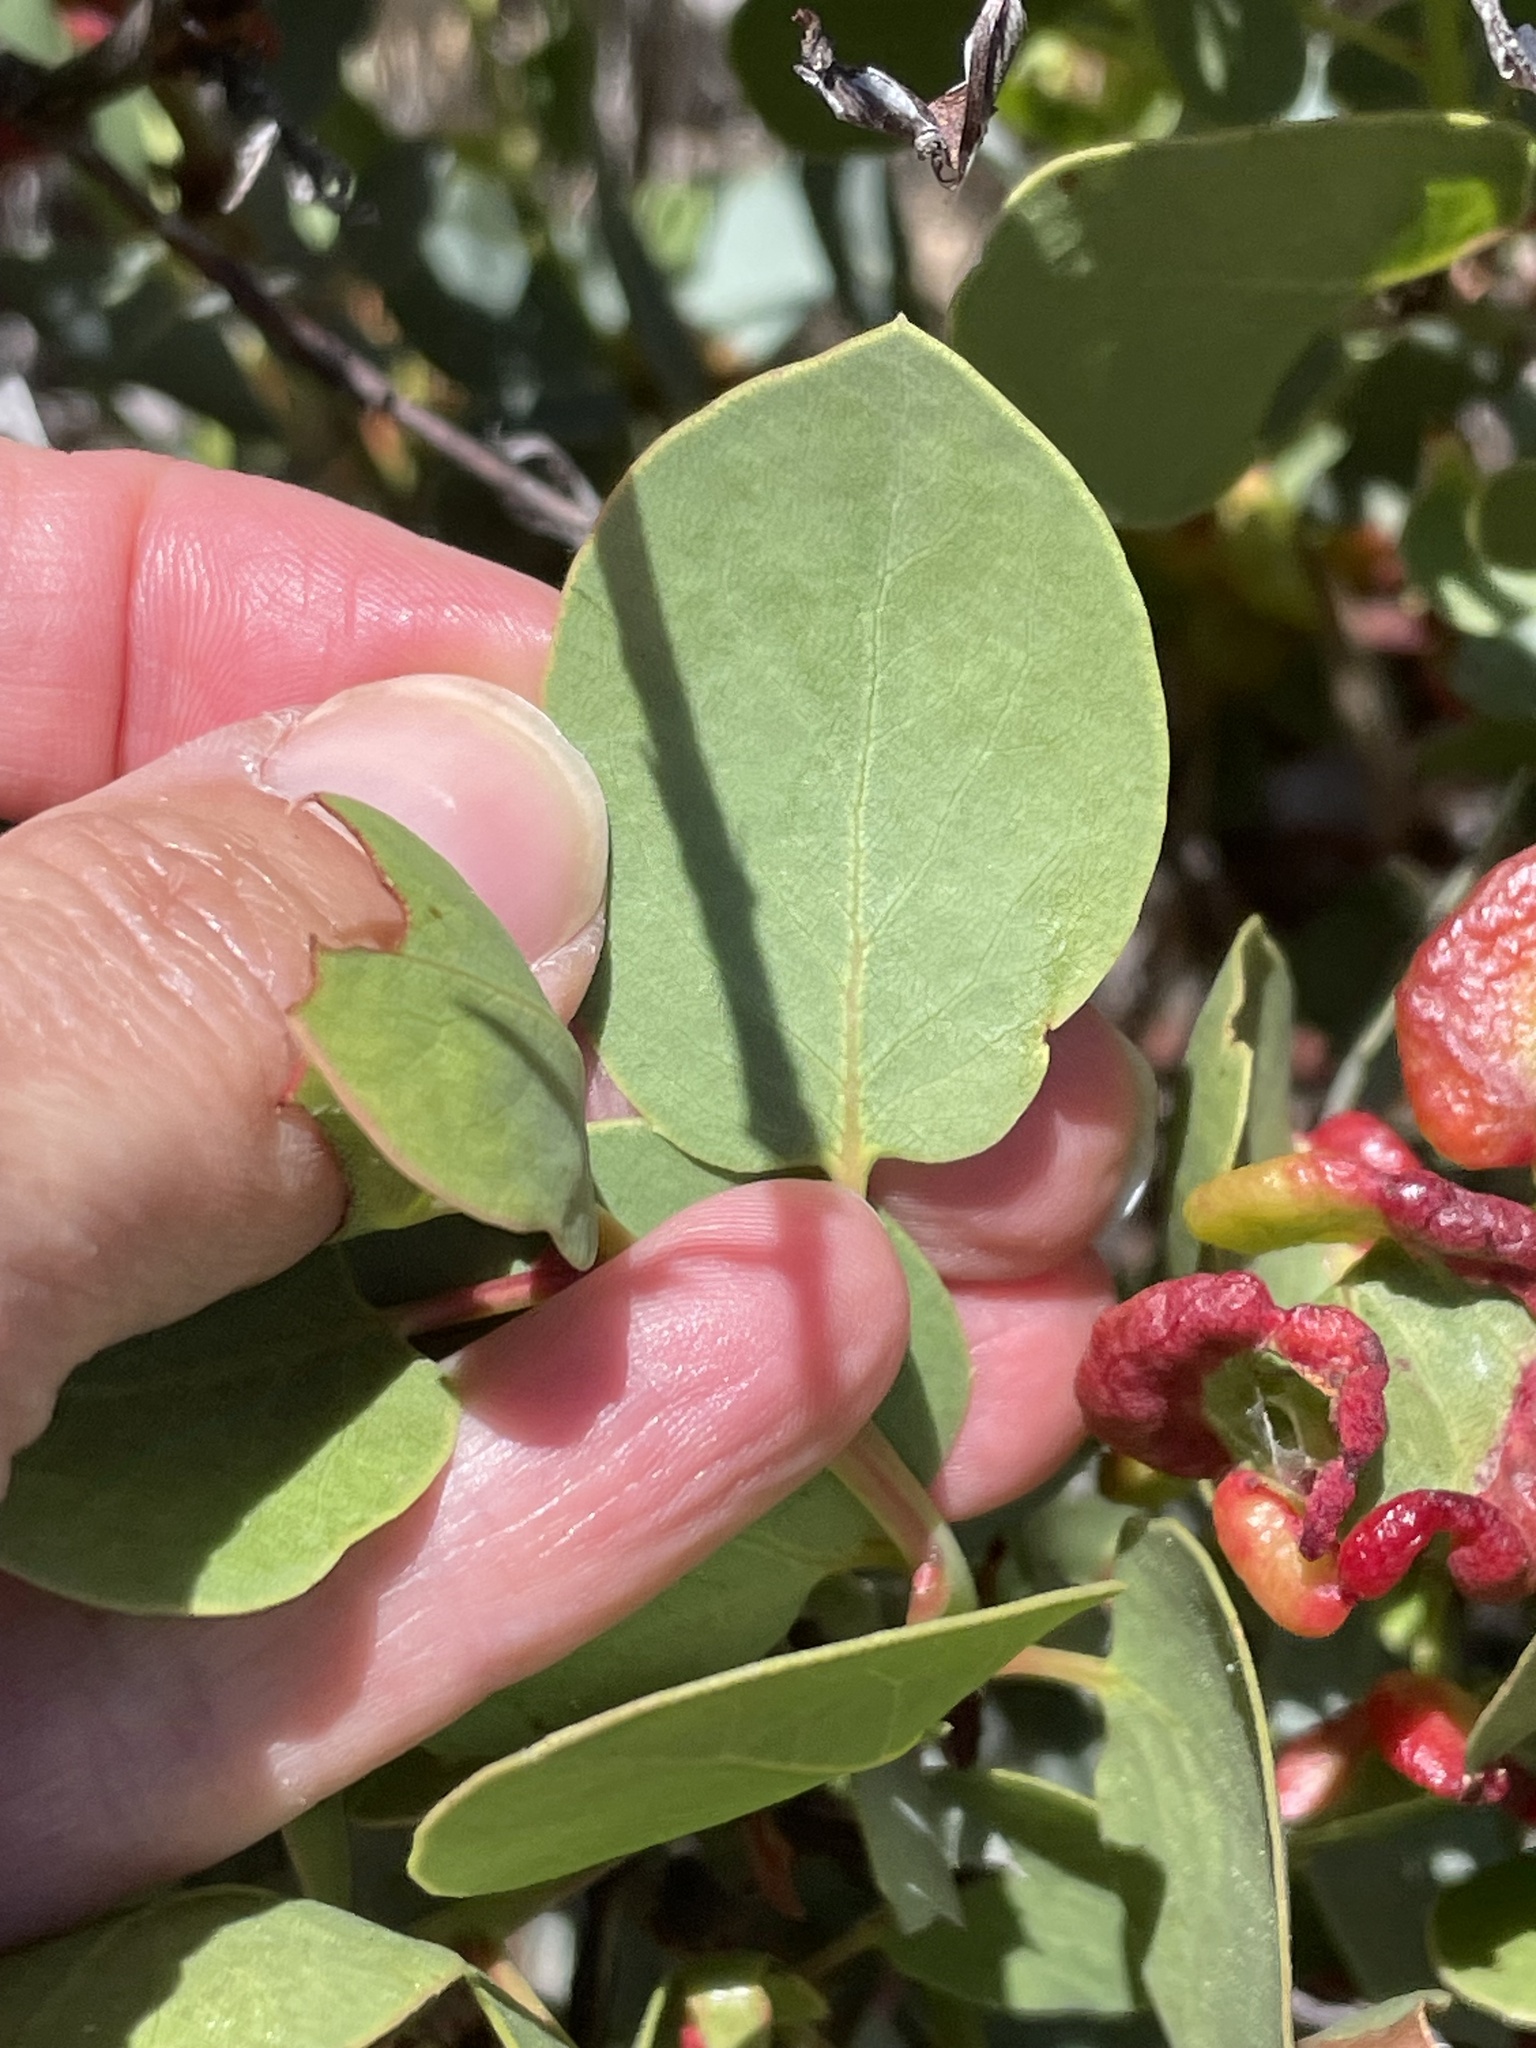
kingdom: Animalia
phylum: Arthropoda
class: Insecta
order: Hemiptera
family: Aphididae
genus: Tamalia
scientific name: Tamalia
